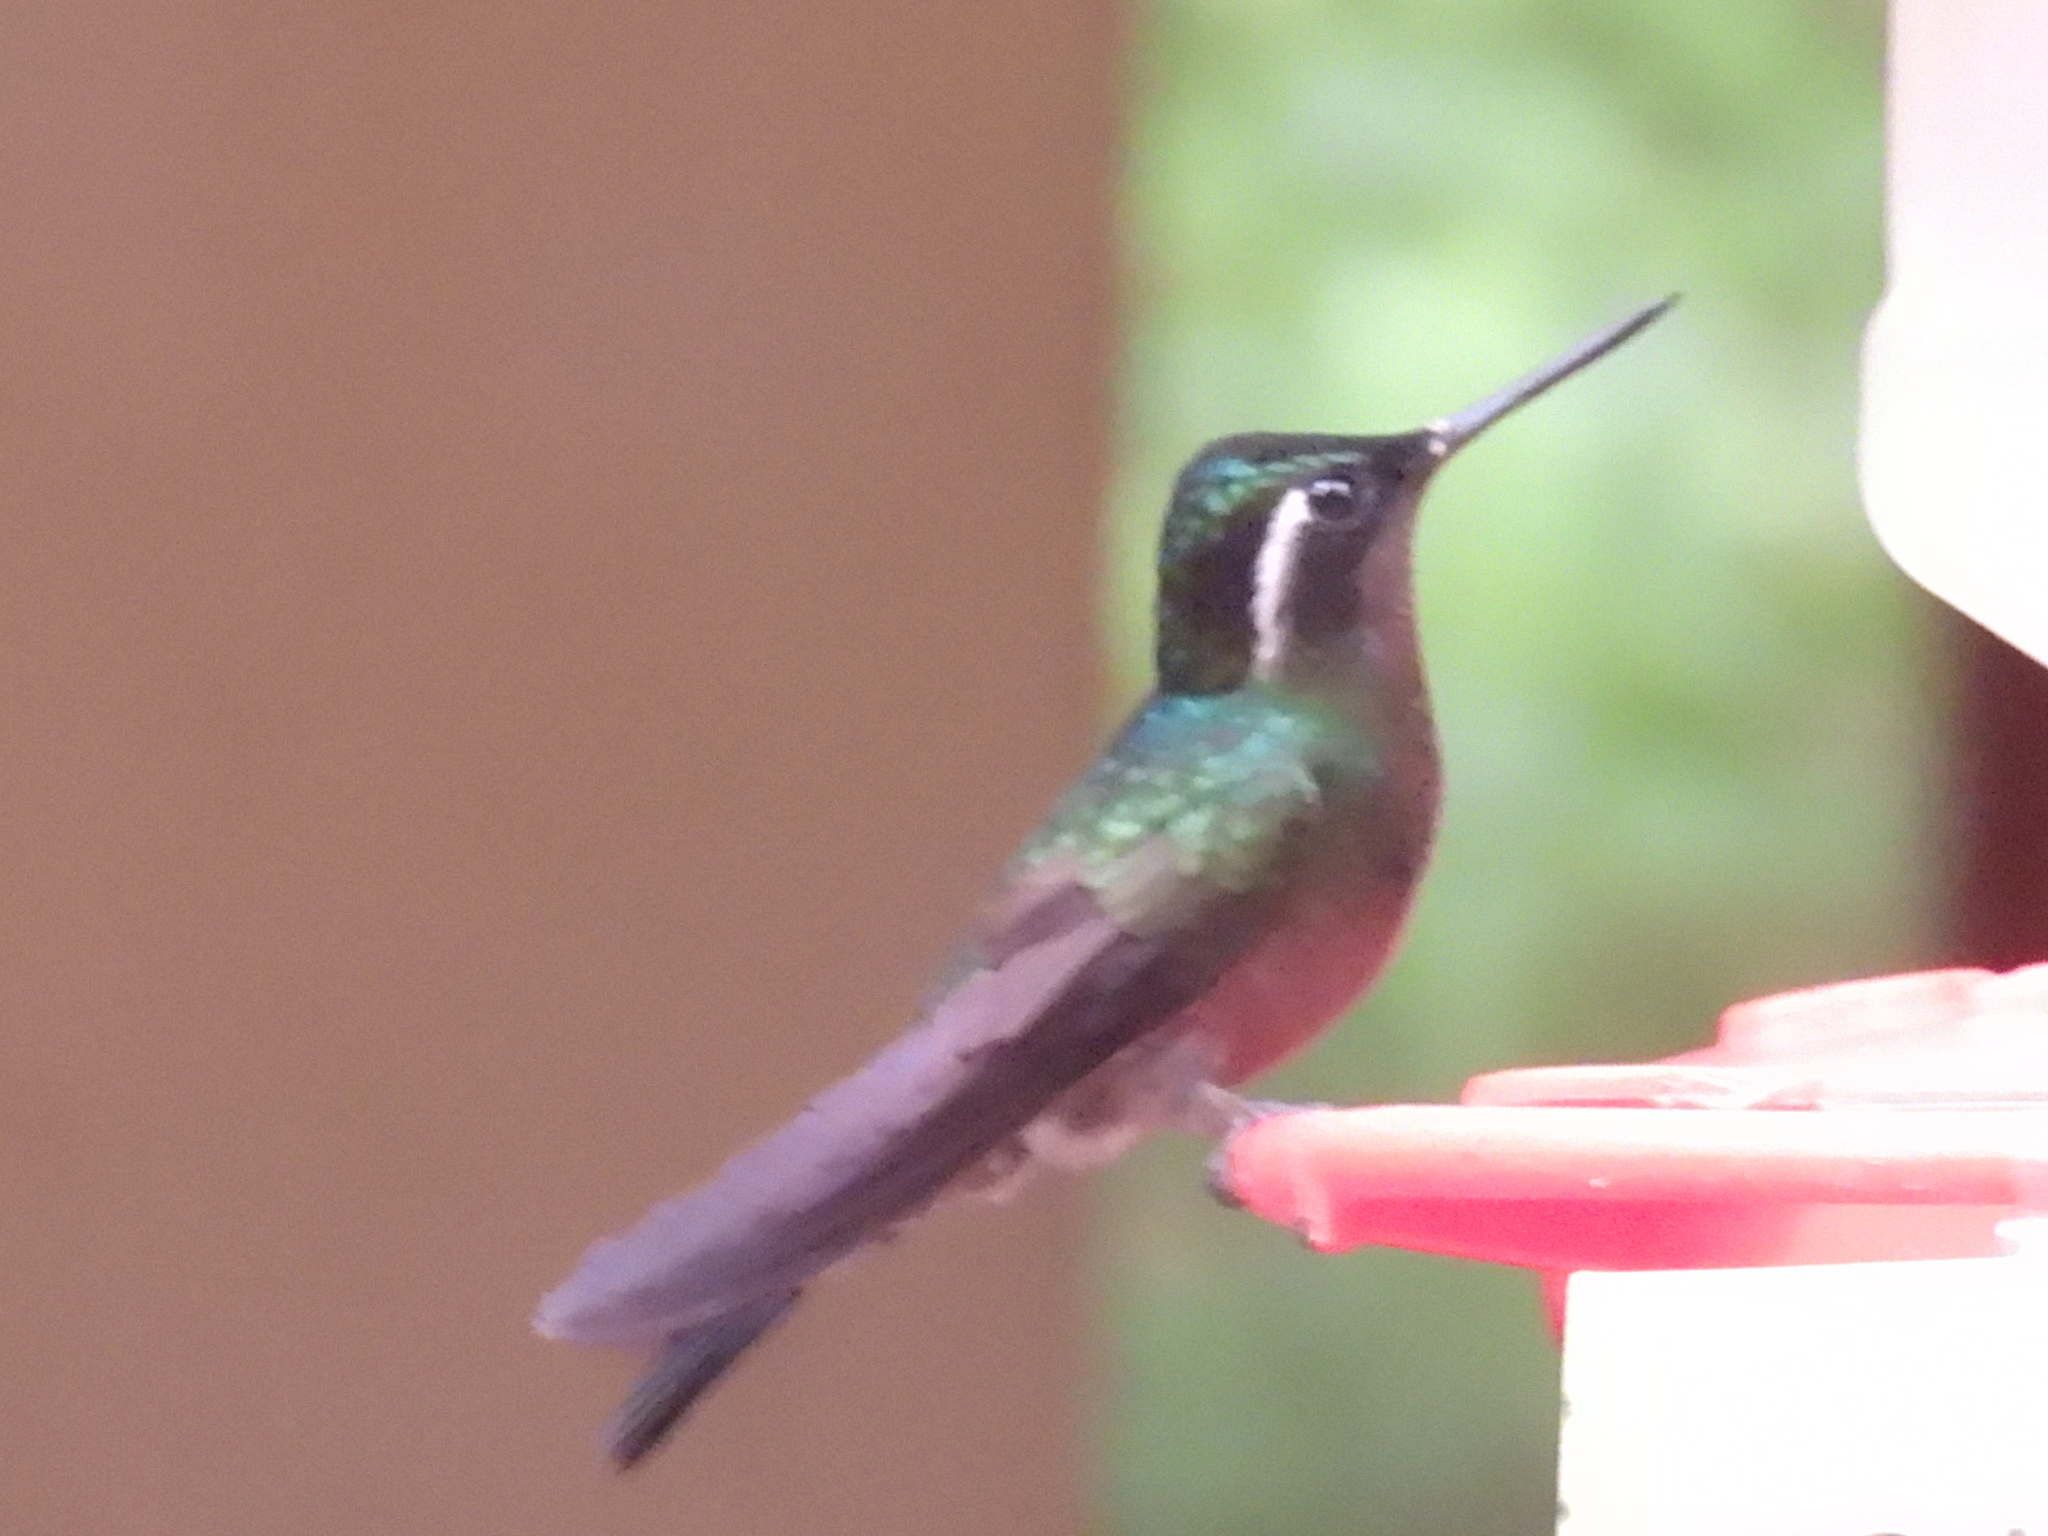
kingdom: Animalia
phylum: Chordata
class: Aves
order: Apodiformes
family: Trochilidae
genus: Lampornis
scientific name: Lampornis calolaemus
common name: Purple-throated mountain-gem
